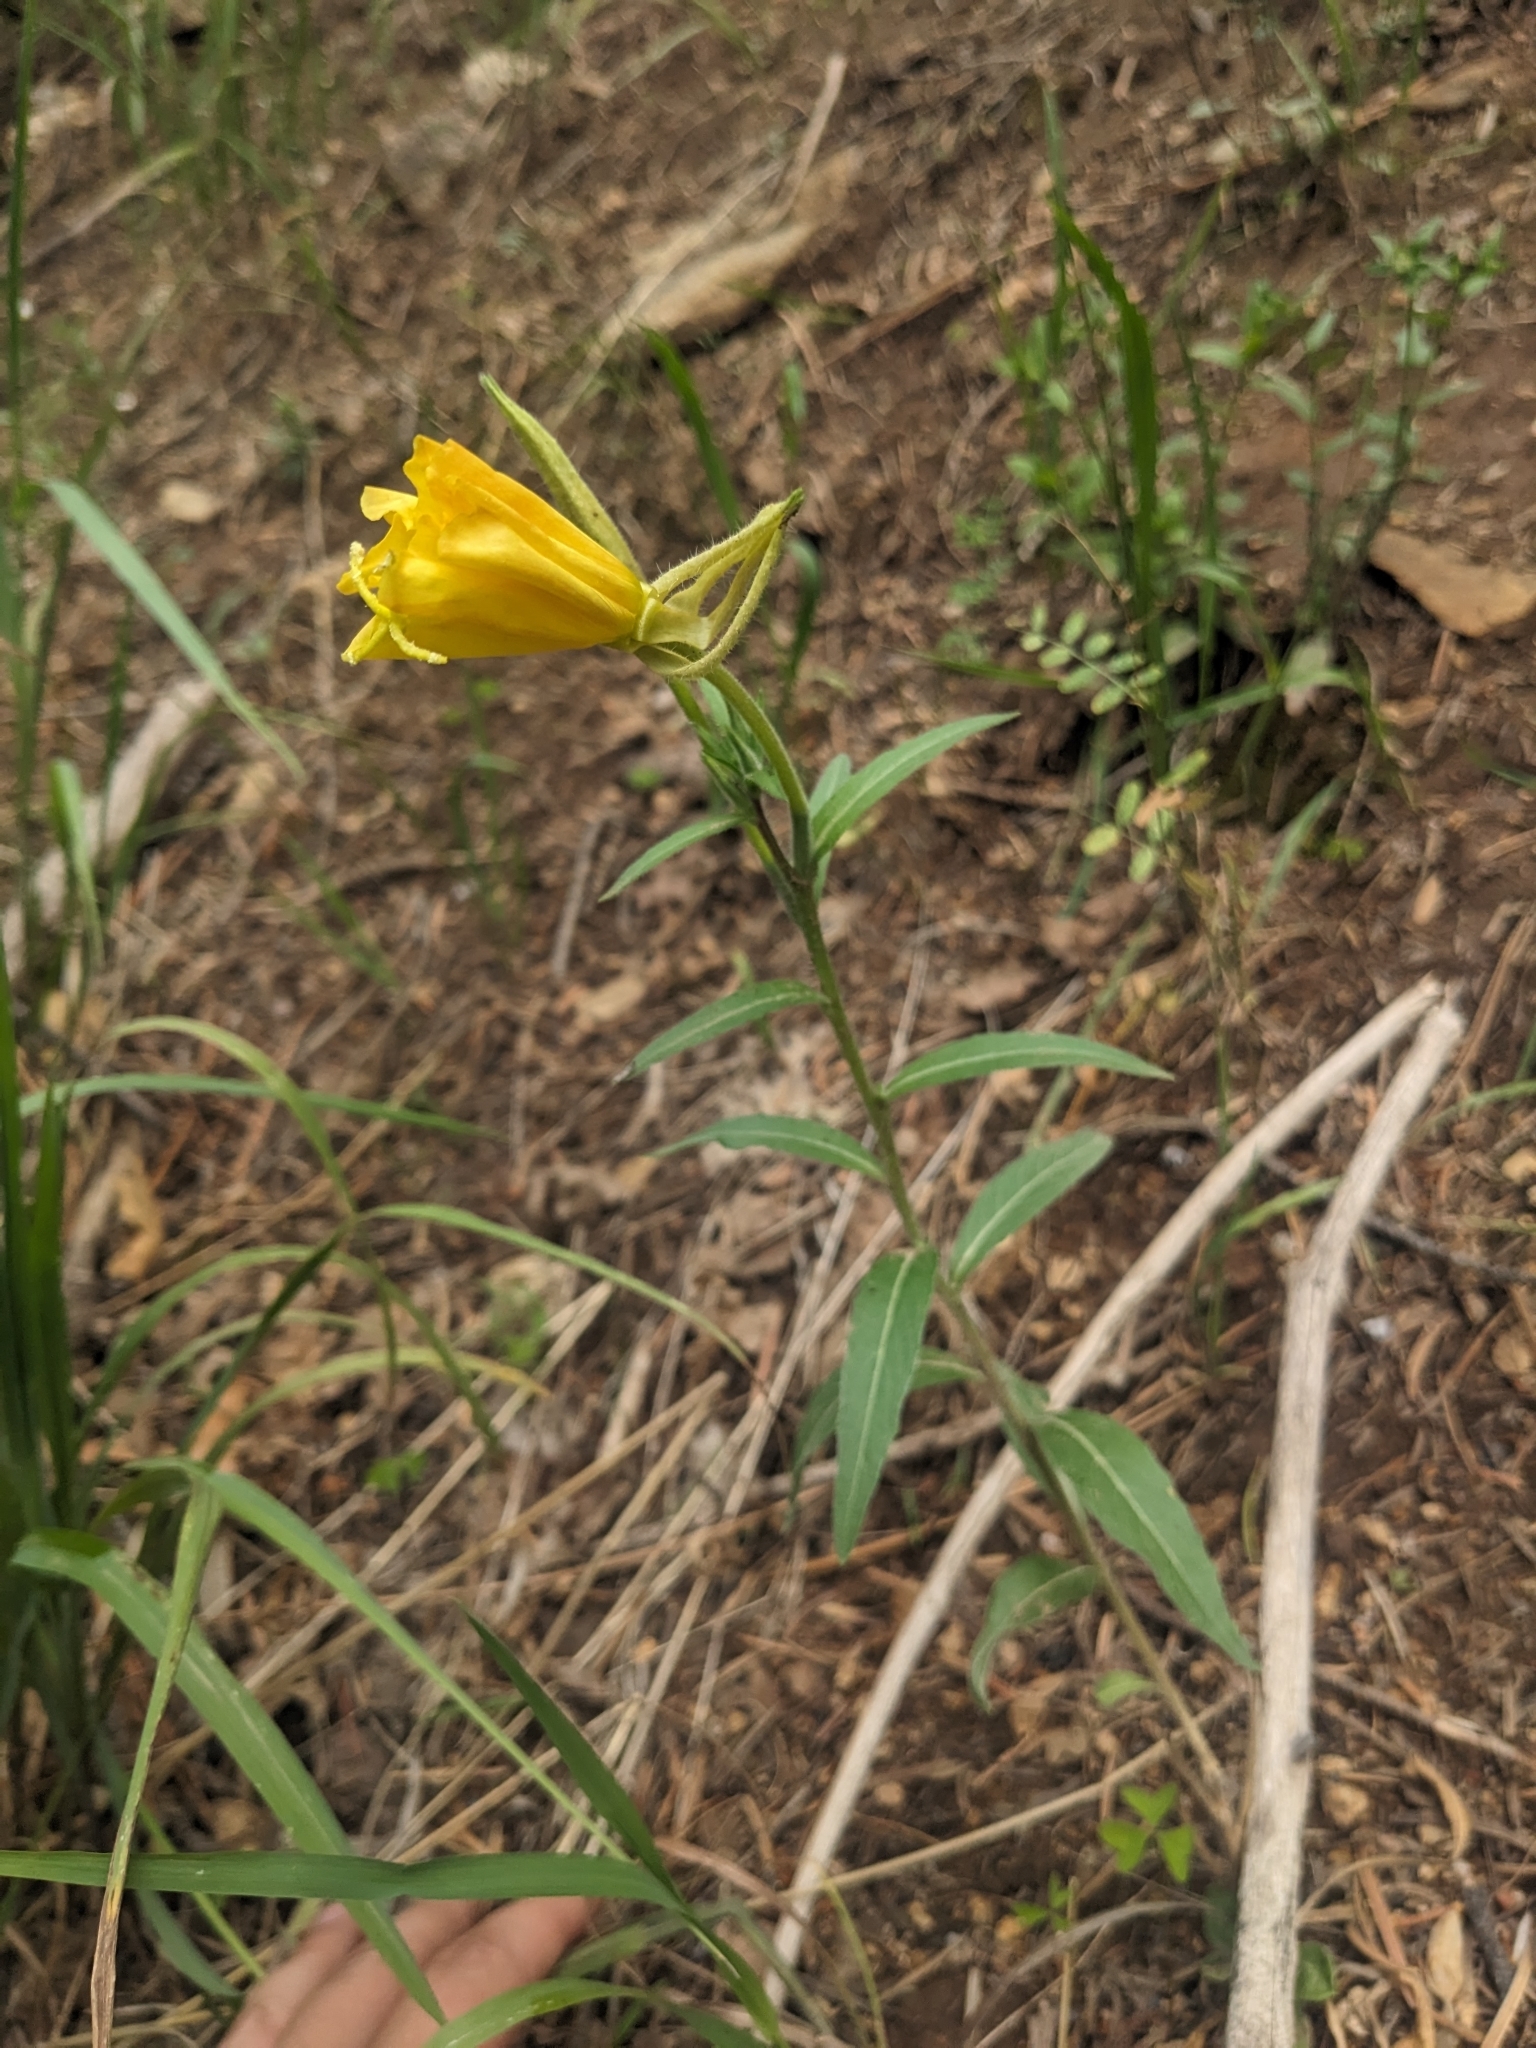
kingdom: Plantae
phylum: Tracheophyta
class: Magnoliopsida
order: Myrtales
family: Onagraceae
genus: Oenothera
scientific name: Oenothera elata
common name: Hooker's evening-primrose
